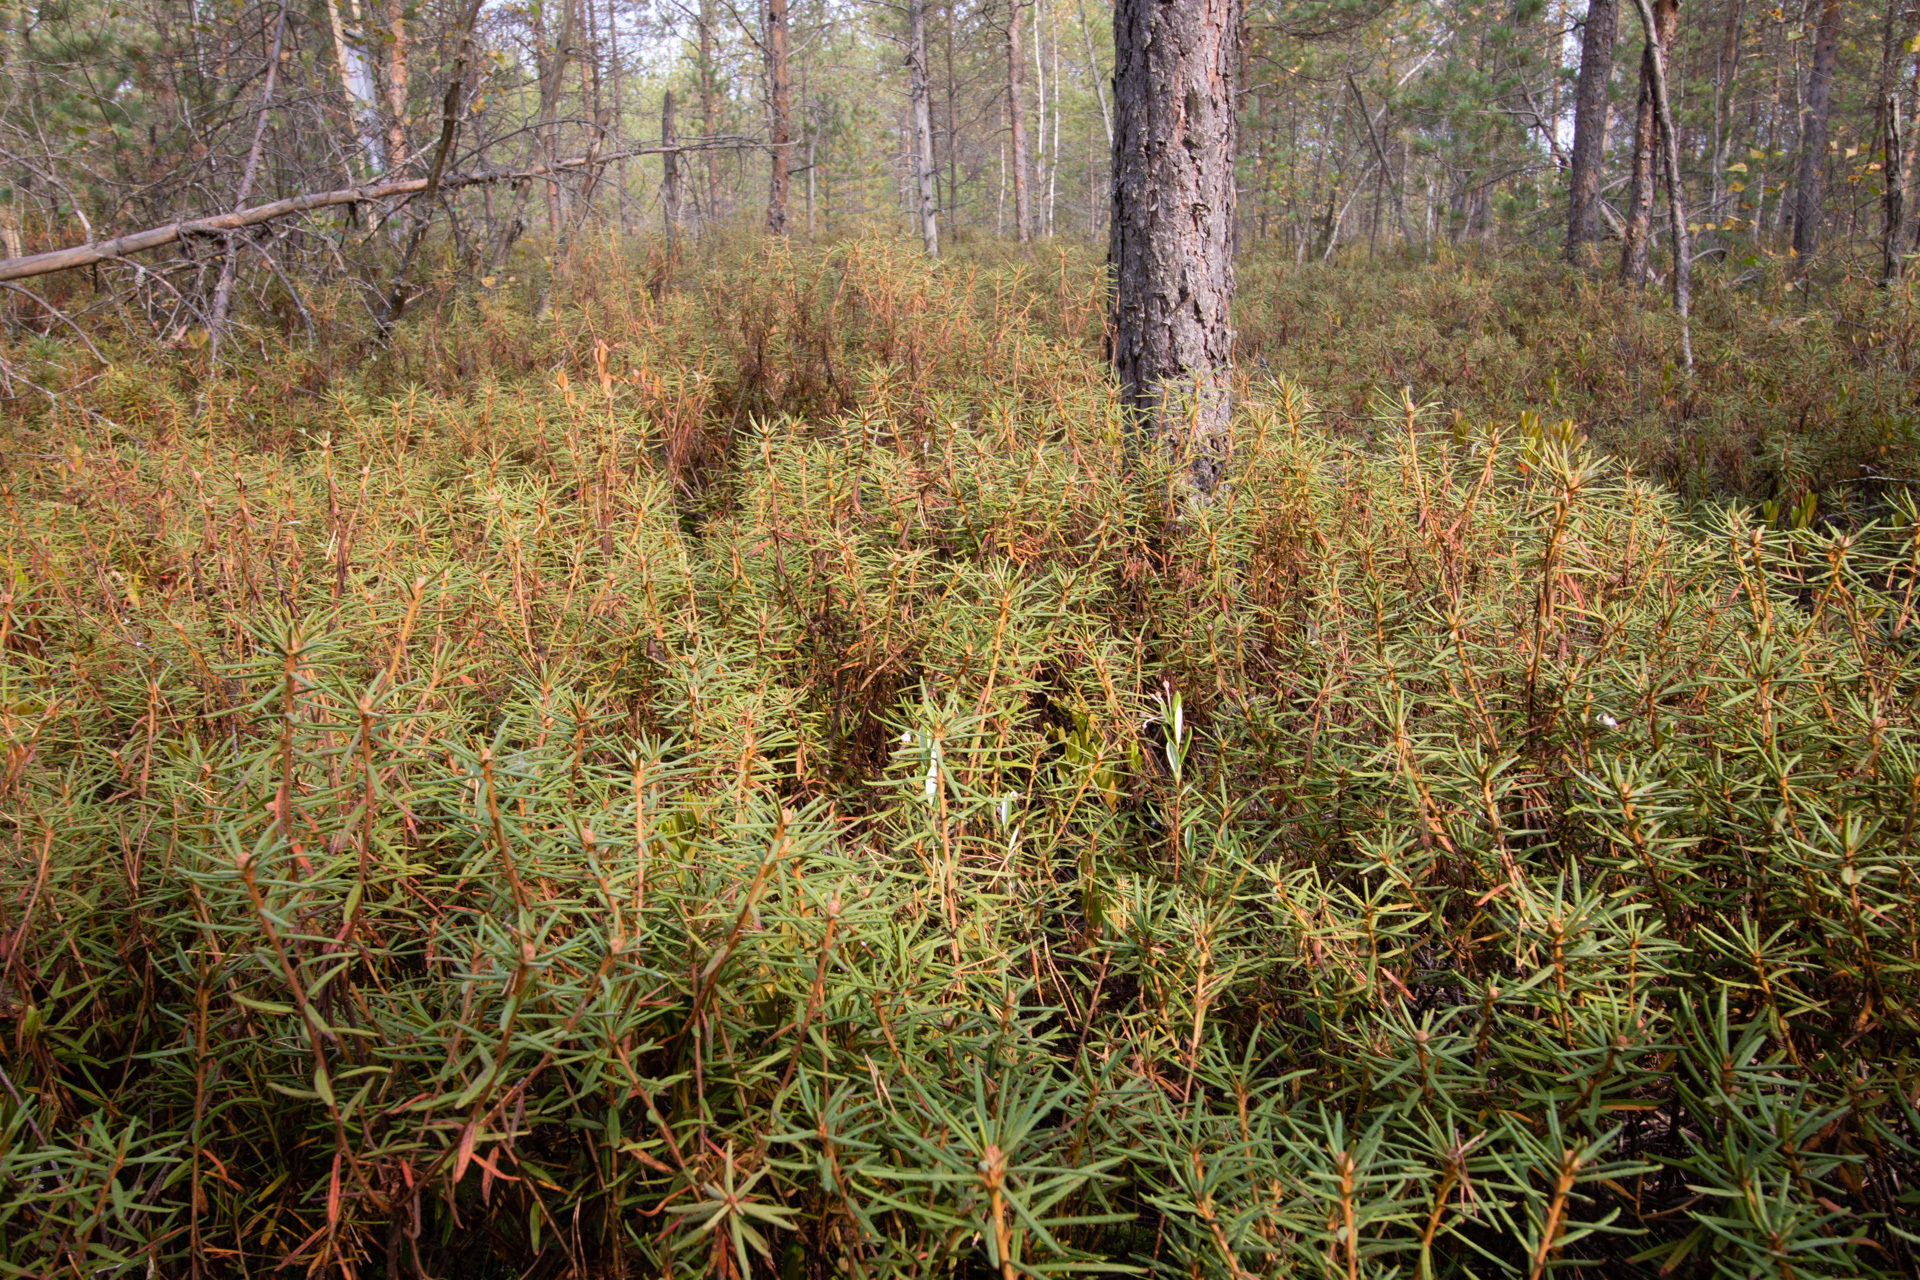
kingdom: Plantae
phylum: Tracheophyta
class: Magnoliopsida
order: Ericales
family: Ericaceae
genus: Rhododendron
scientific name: Rhododendron tomentosum
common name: Marsh labrador tea
